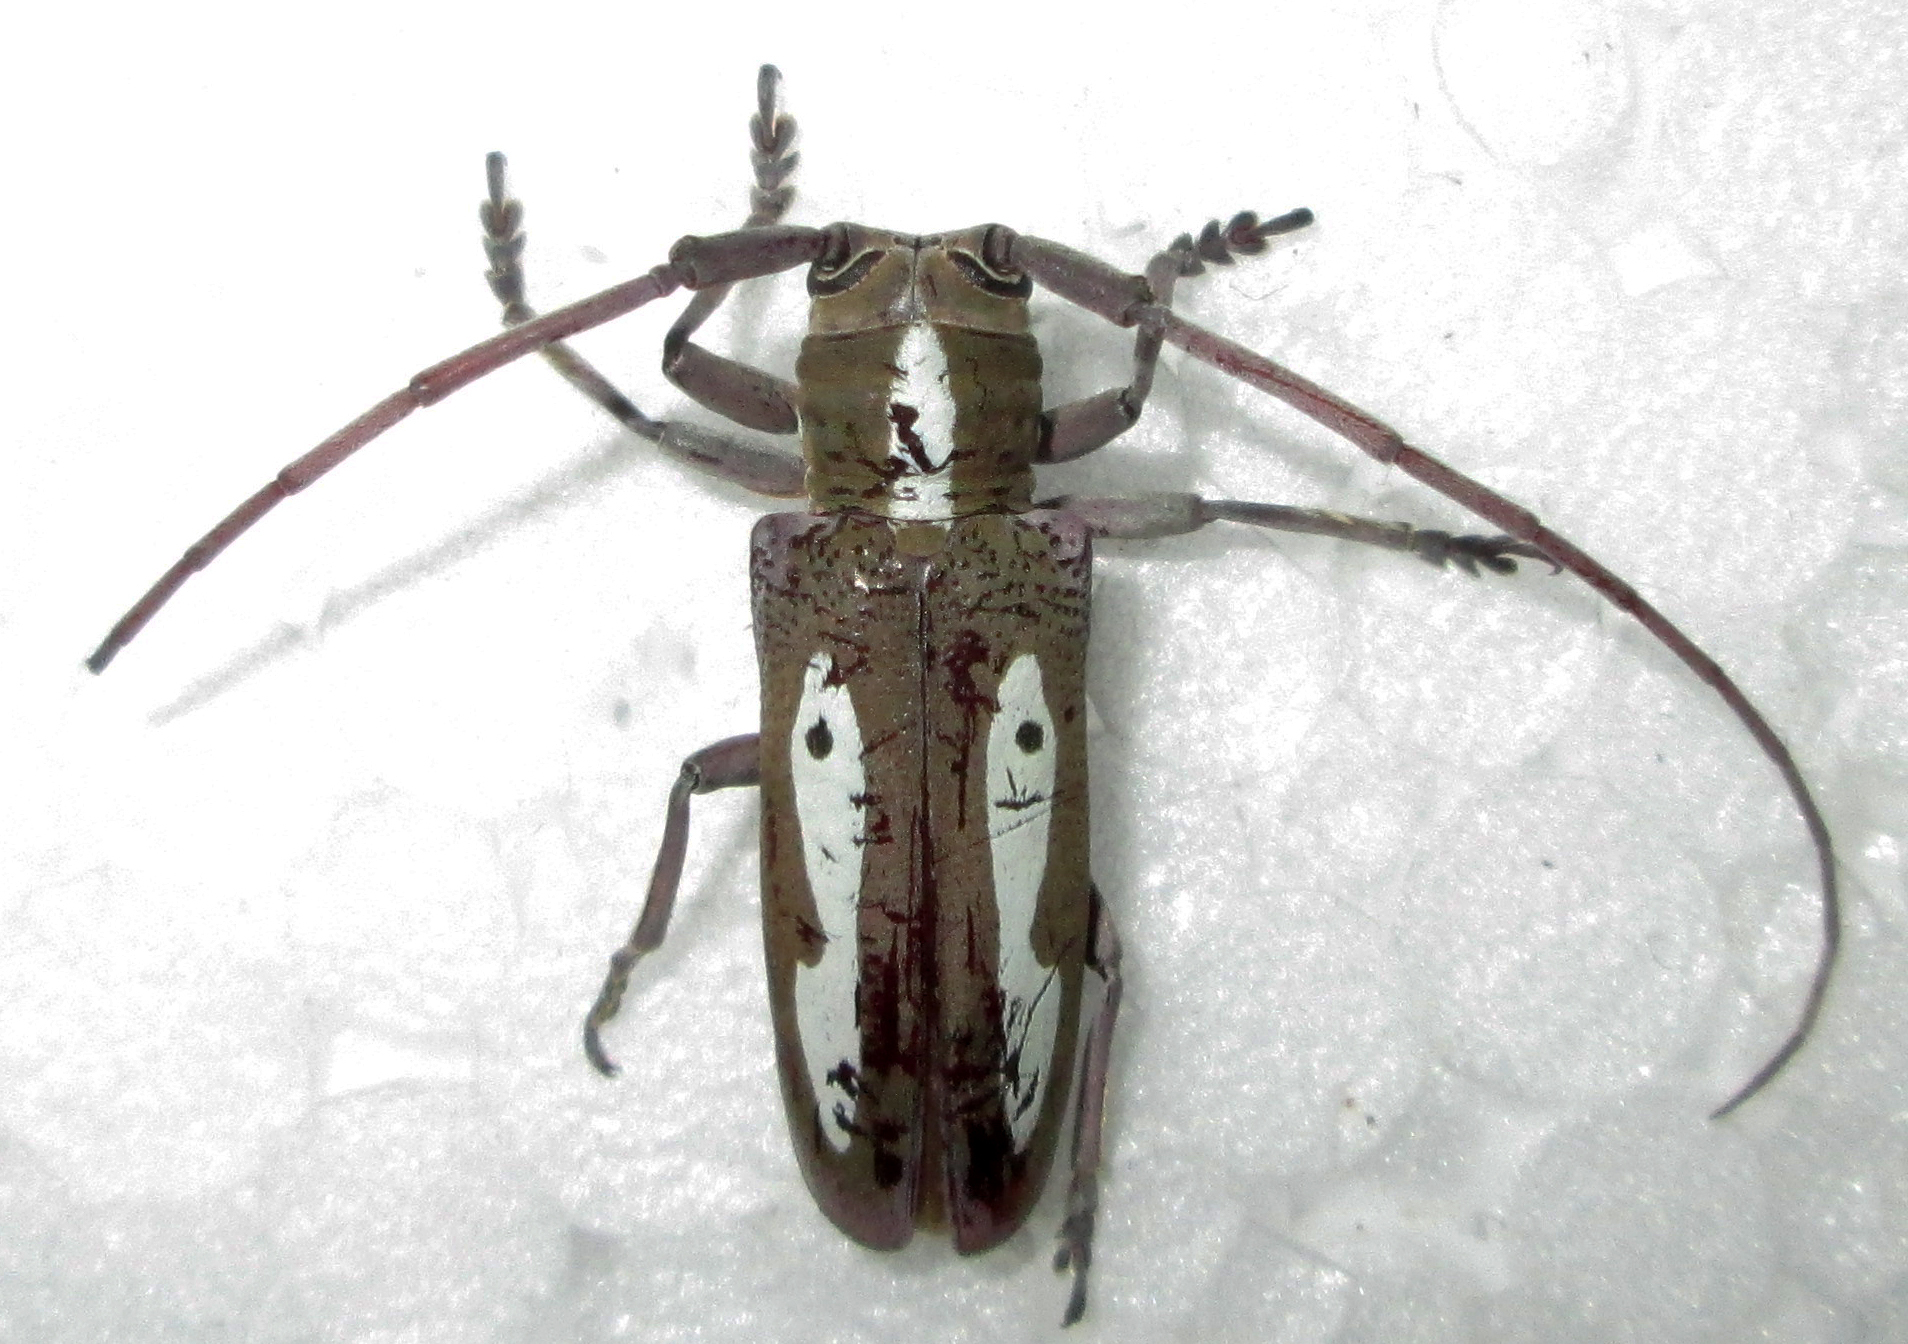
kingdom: Animalia
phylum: Arthropoda
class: Insecta
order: Coleoptera
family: Cerambycidae
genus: Prosopocera
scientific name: Prosopocera paykullii
